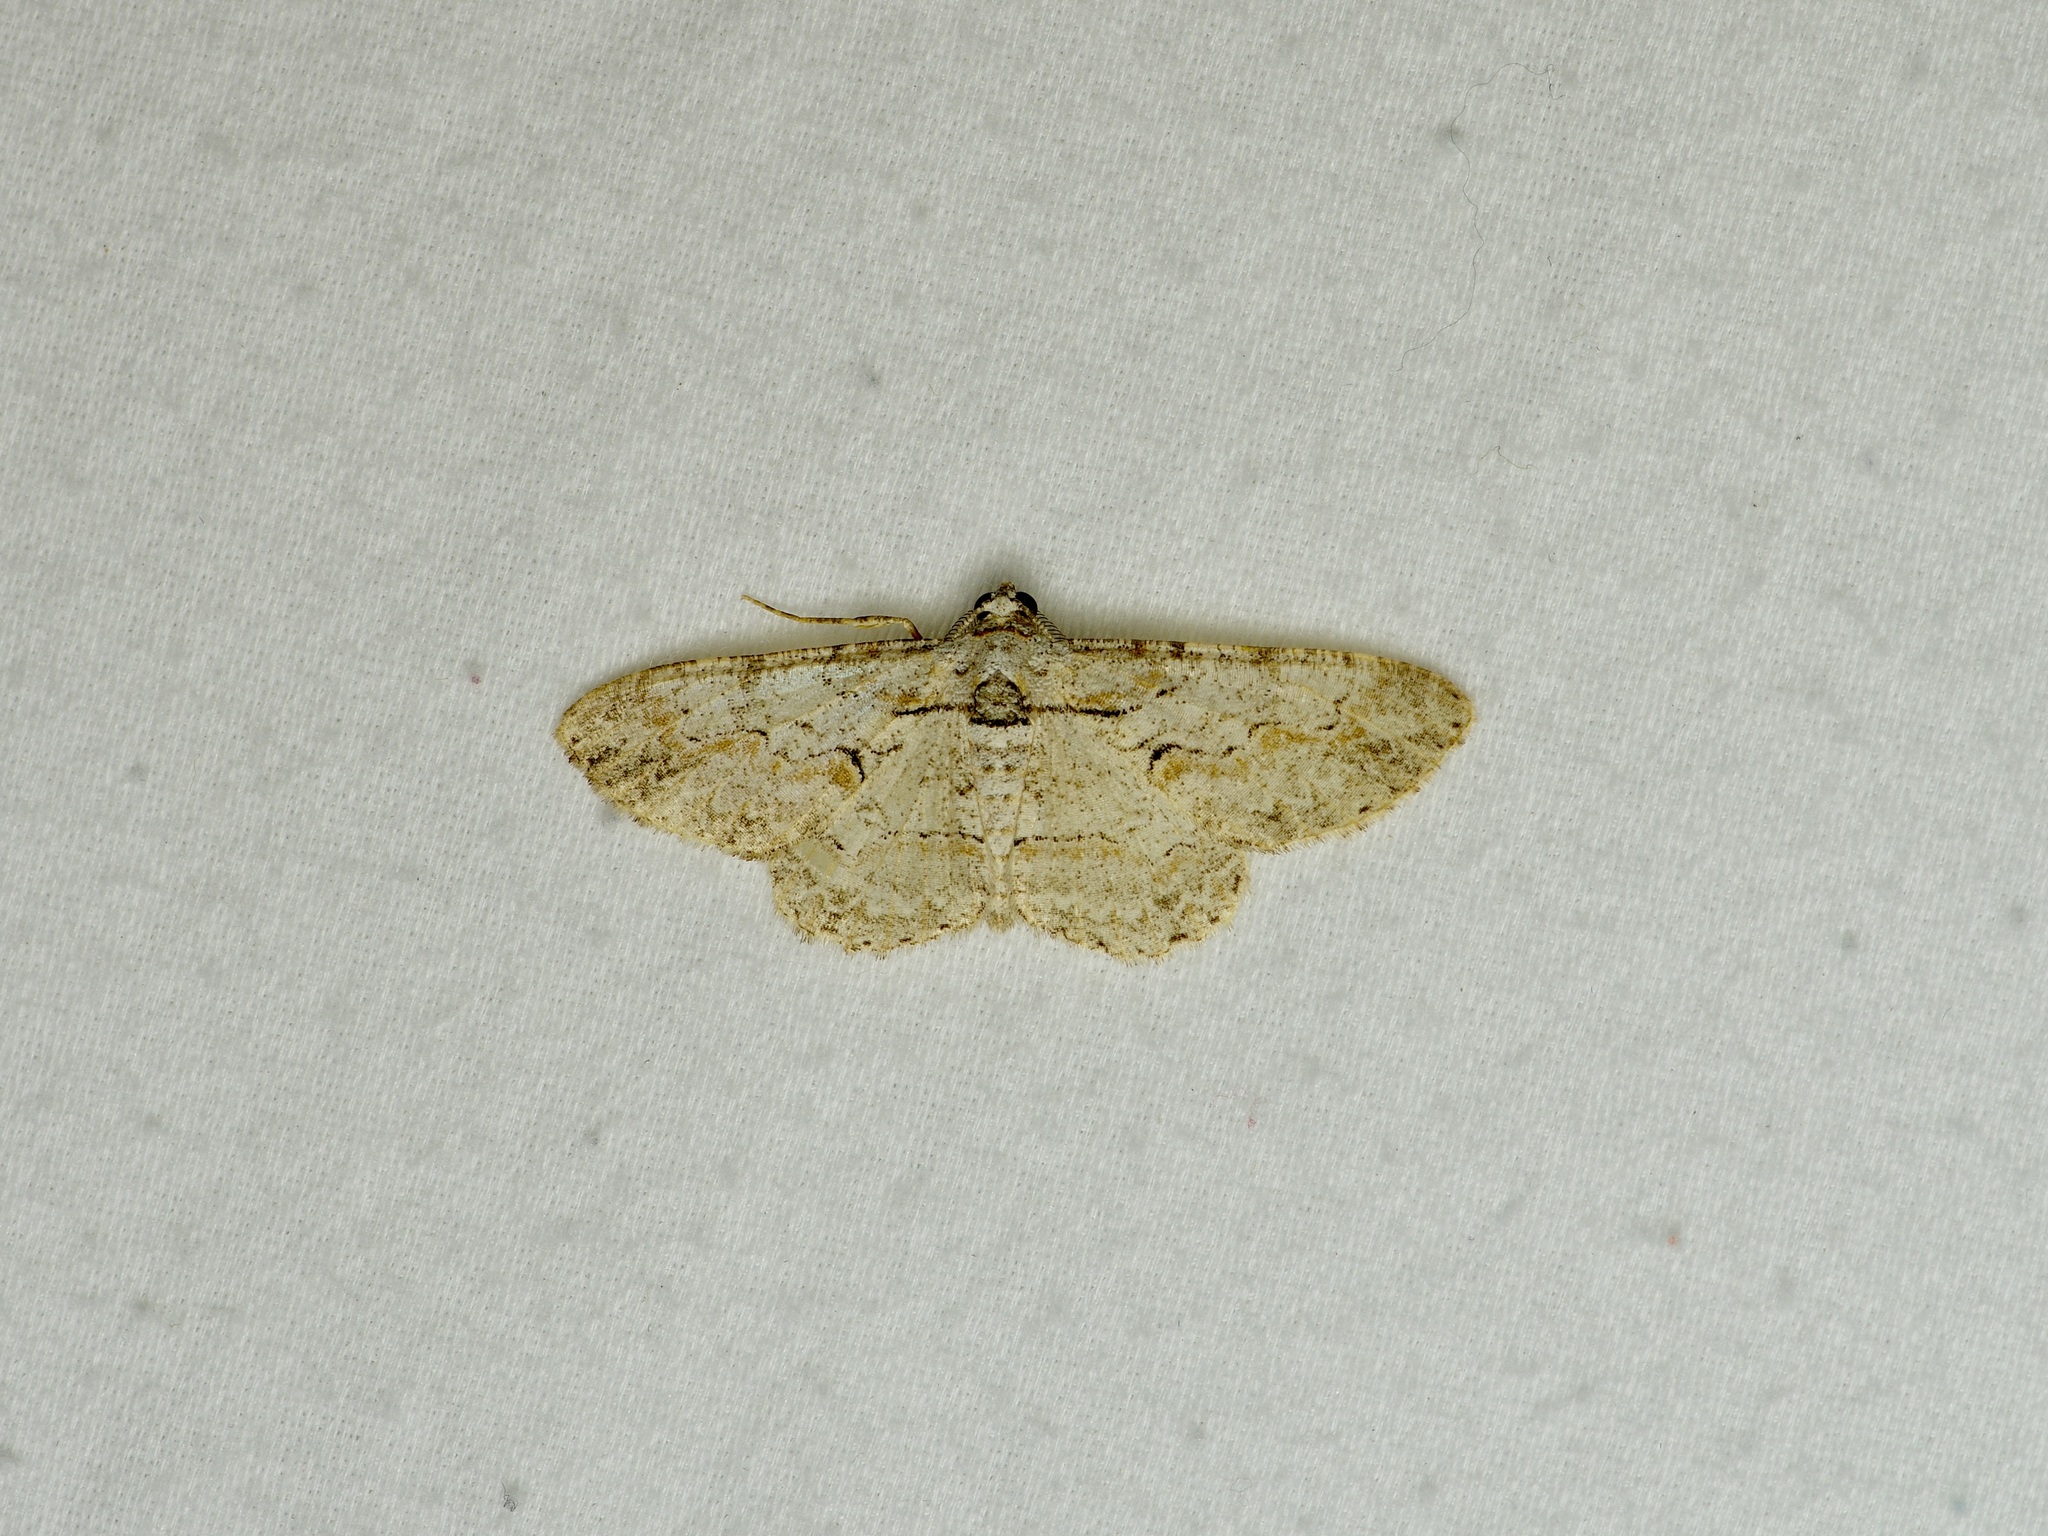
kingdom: Animalia
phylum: Arthropoda
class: Insecta
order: Lepidoptera
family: Geometridae
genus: Iridopsis
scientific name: Iridopsis defectaria
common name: Brown-shaded gray
